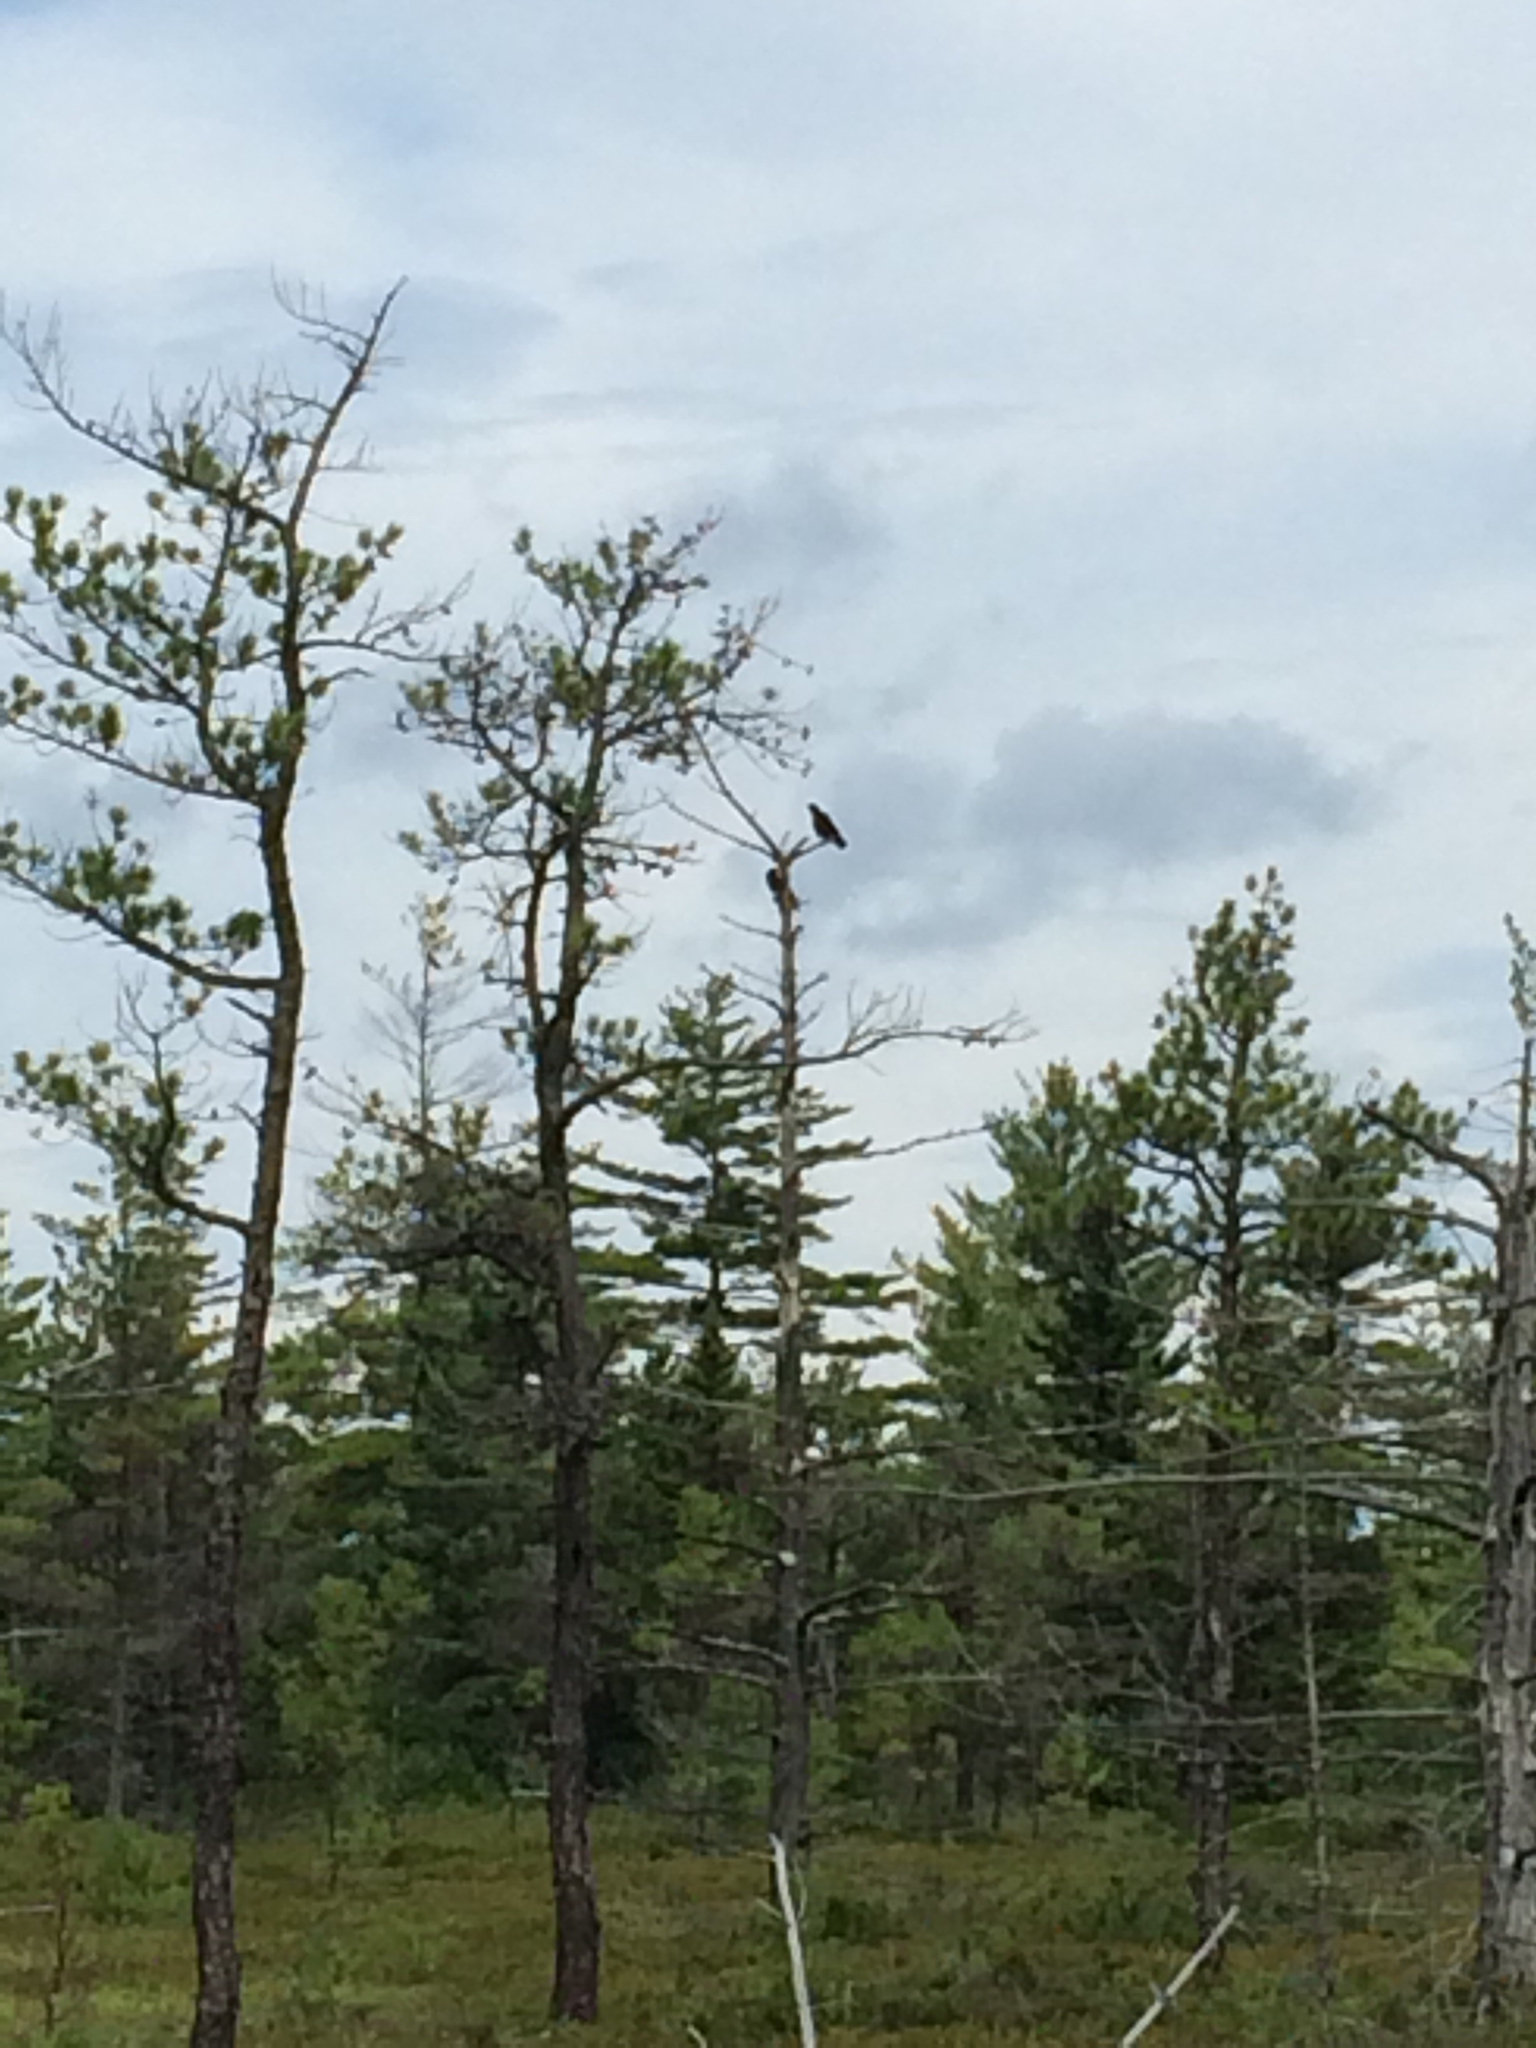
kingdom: Animalia
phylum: Chordata
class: Aves
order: Passeriformes
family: Corvidae
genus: Corvus
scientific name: Corvus
